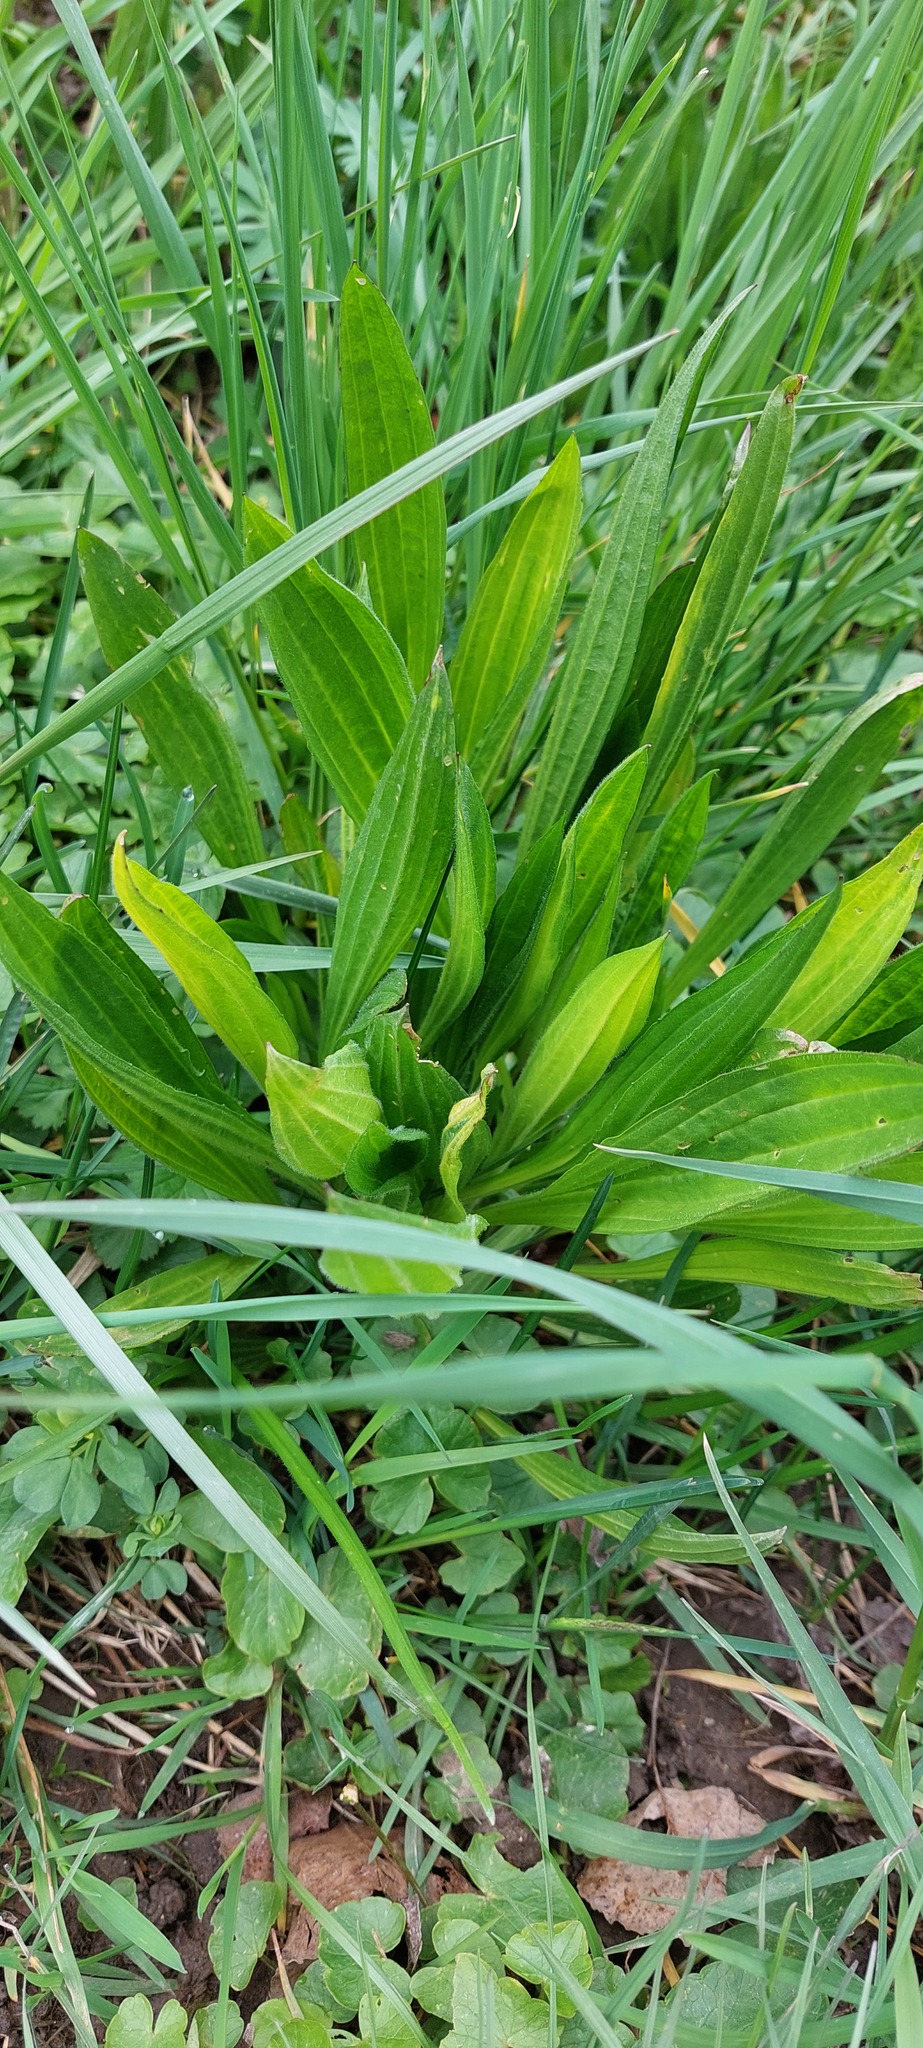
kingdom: Plantae
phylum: Tracheophyta
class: Magnoliopsida
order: Lamiales
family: Plantaginaceae
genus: Plantago
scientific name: Plantago lanceolata
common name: Ribwort plantain
